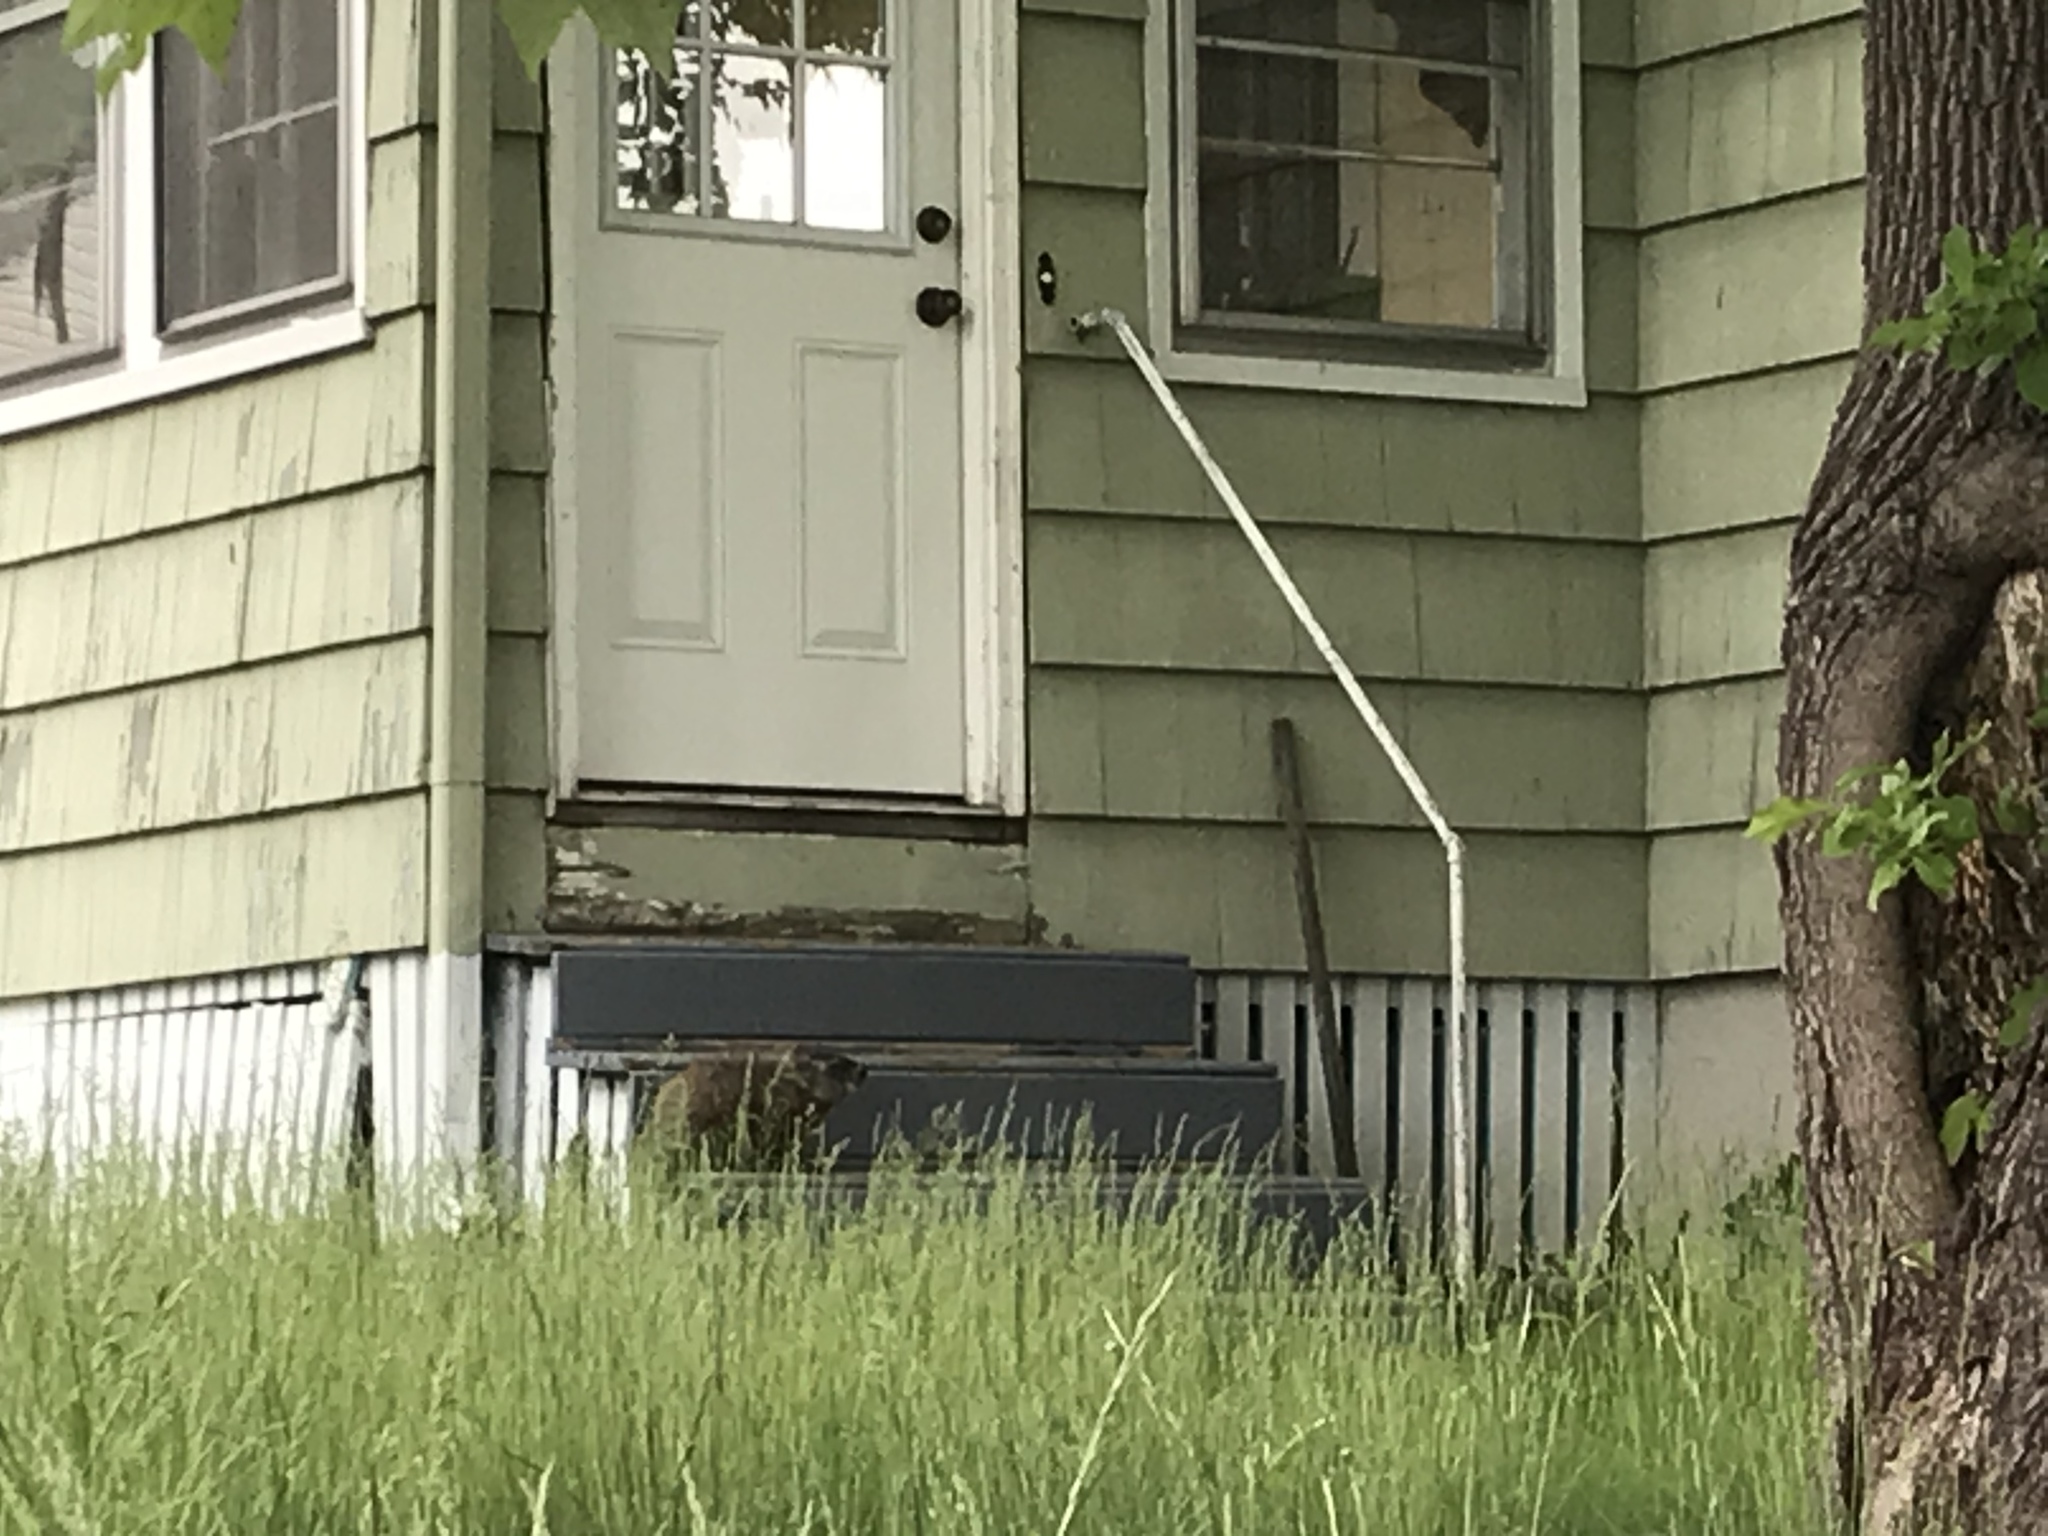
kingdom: Animalia
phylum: Chordata
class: Mammalia
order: Rodentia
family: Sciuridae
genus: Marmota
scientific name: Marmota monax
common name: Groundhog
